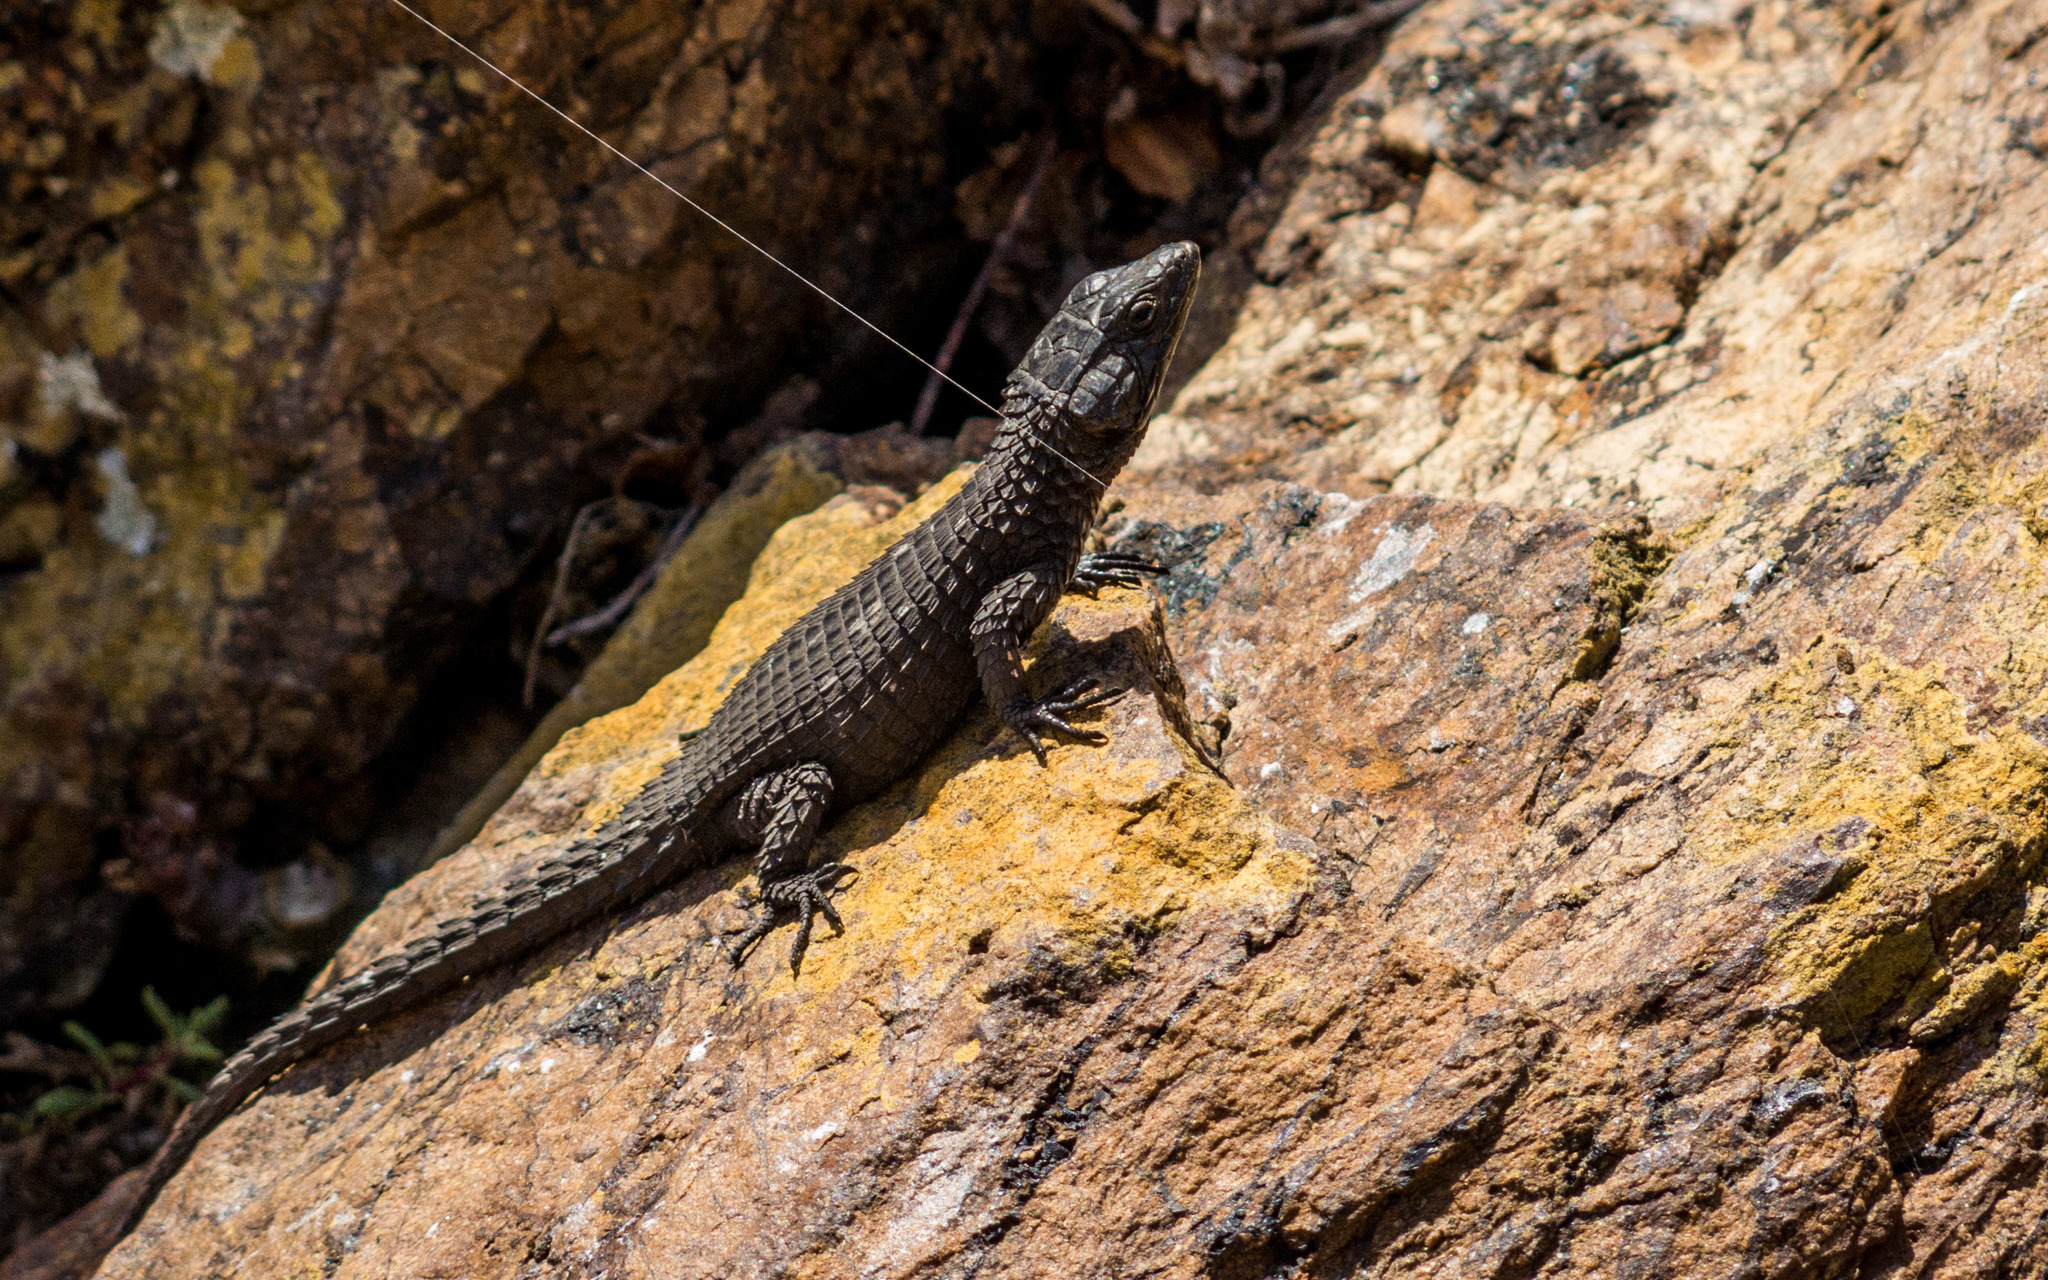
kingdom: Animalia
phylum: Chordata
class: Squamata
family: Cordylidae
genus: Cordylus
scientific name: Cordylus niger
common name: Black girdled lizard
